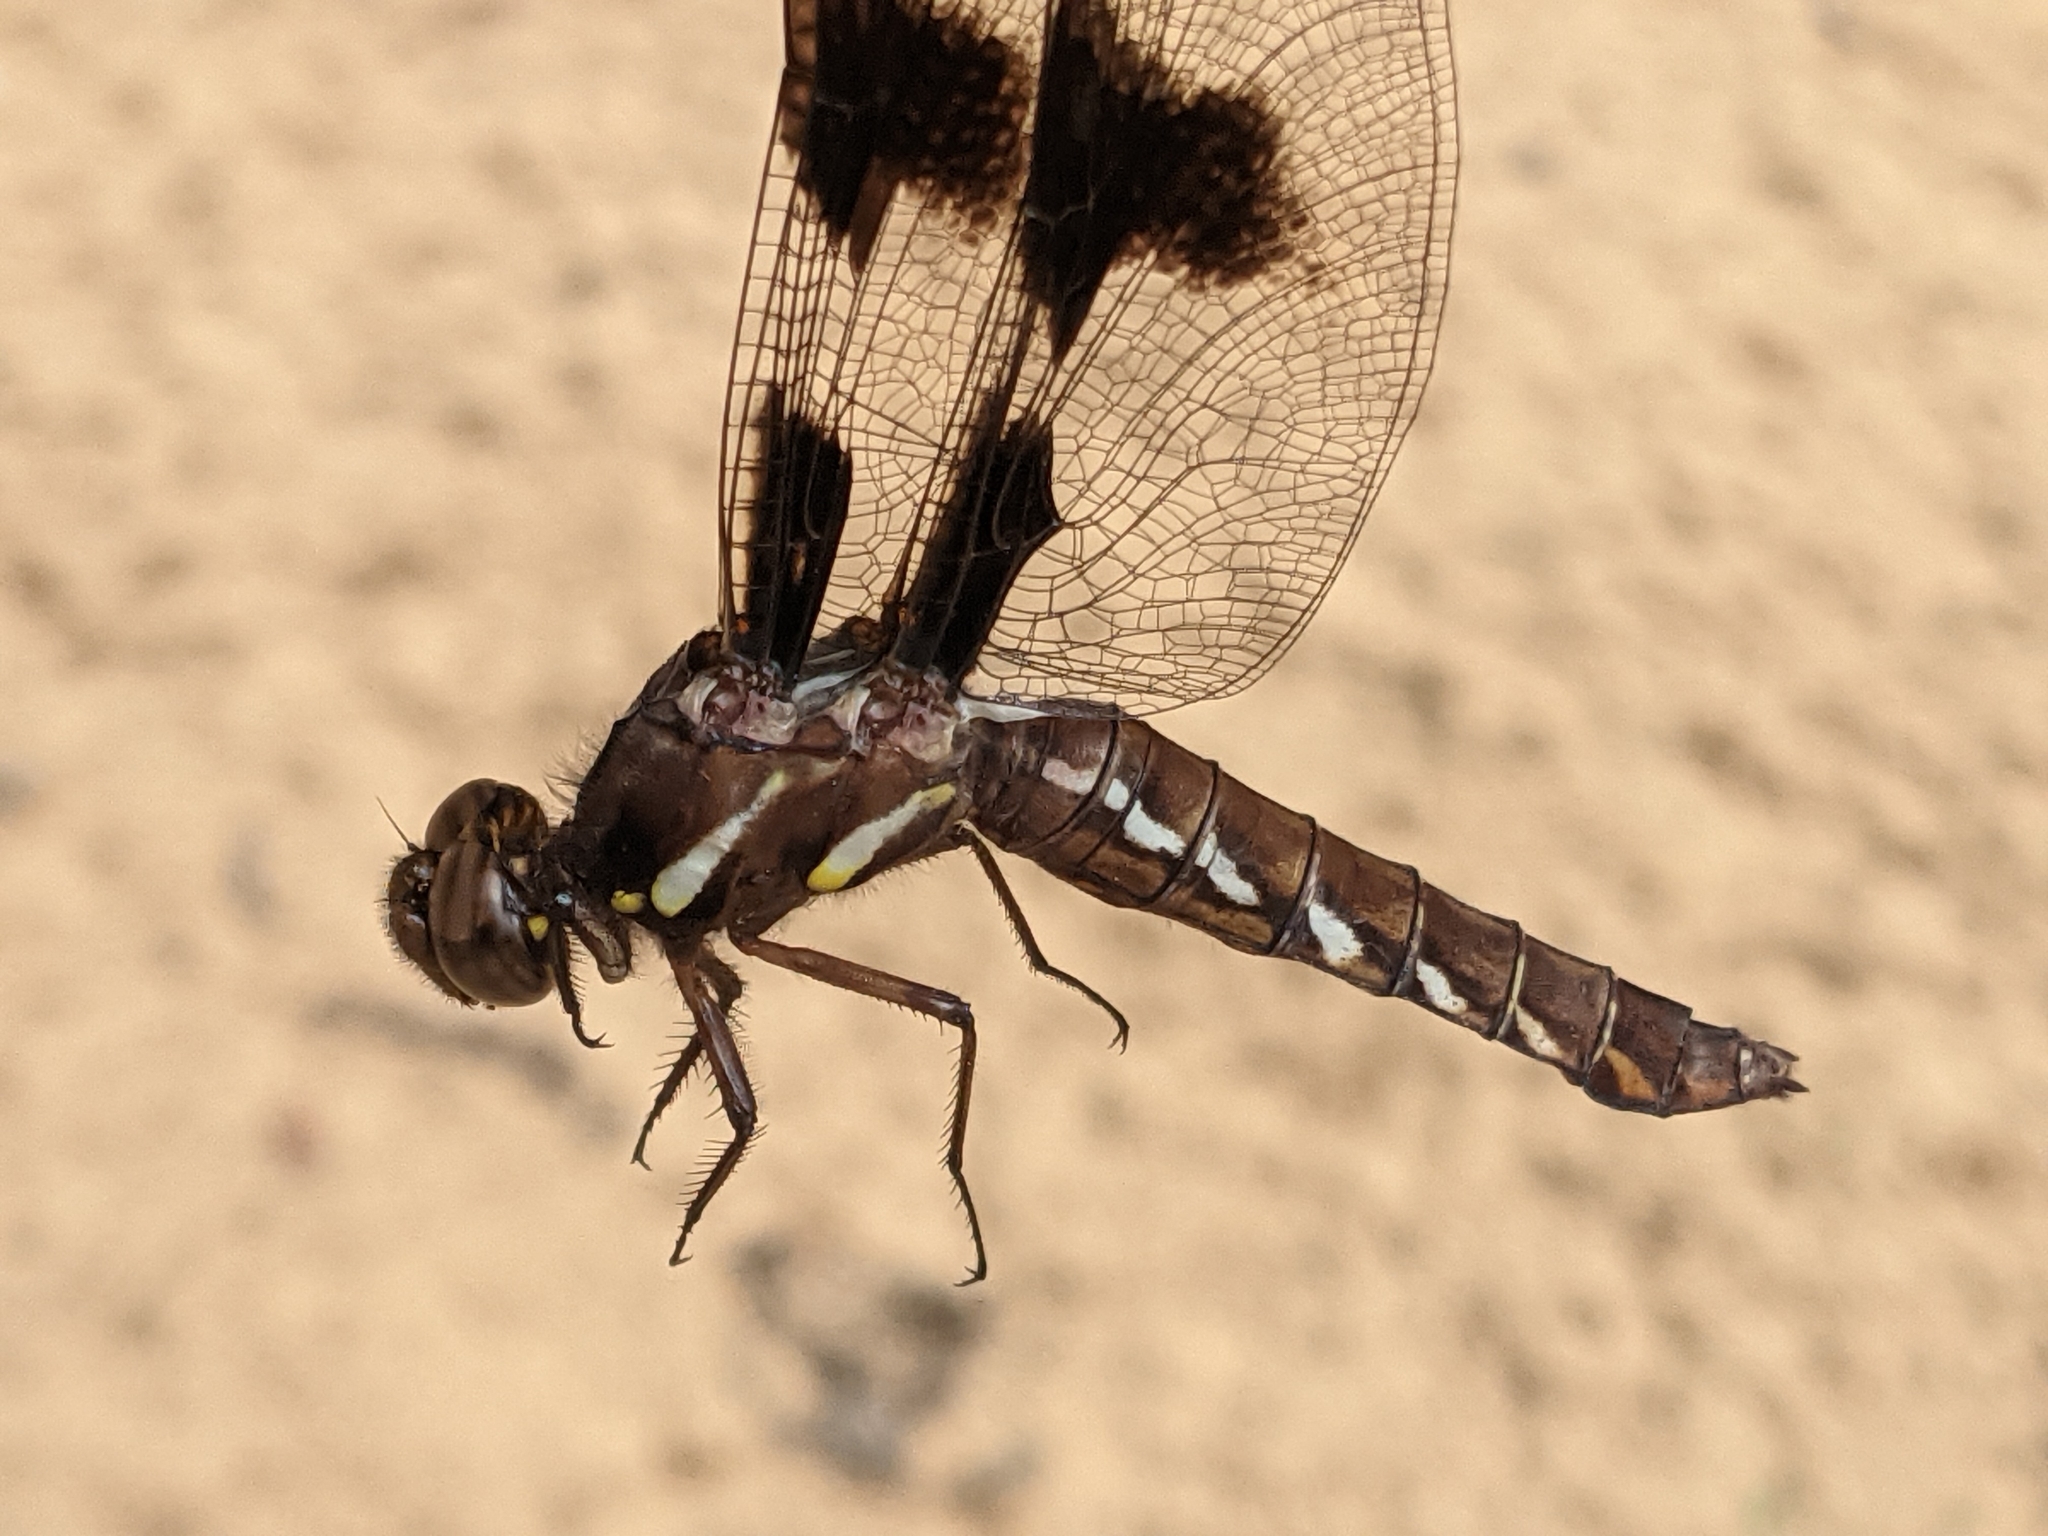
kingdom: Animalia
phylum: Arthropoda
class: Insecta
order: Odonata
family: Libellulidae
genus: Plathemis
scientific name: Plathemis lydia
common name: Common whitetail
